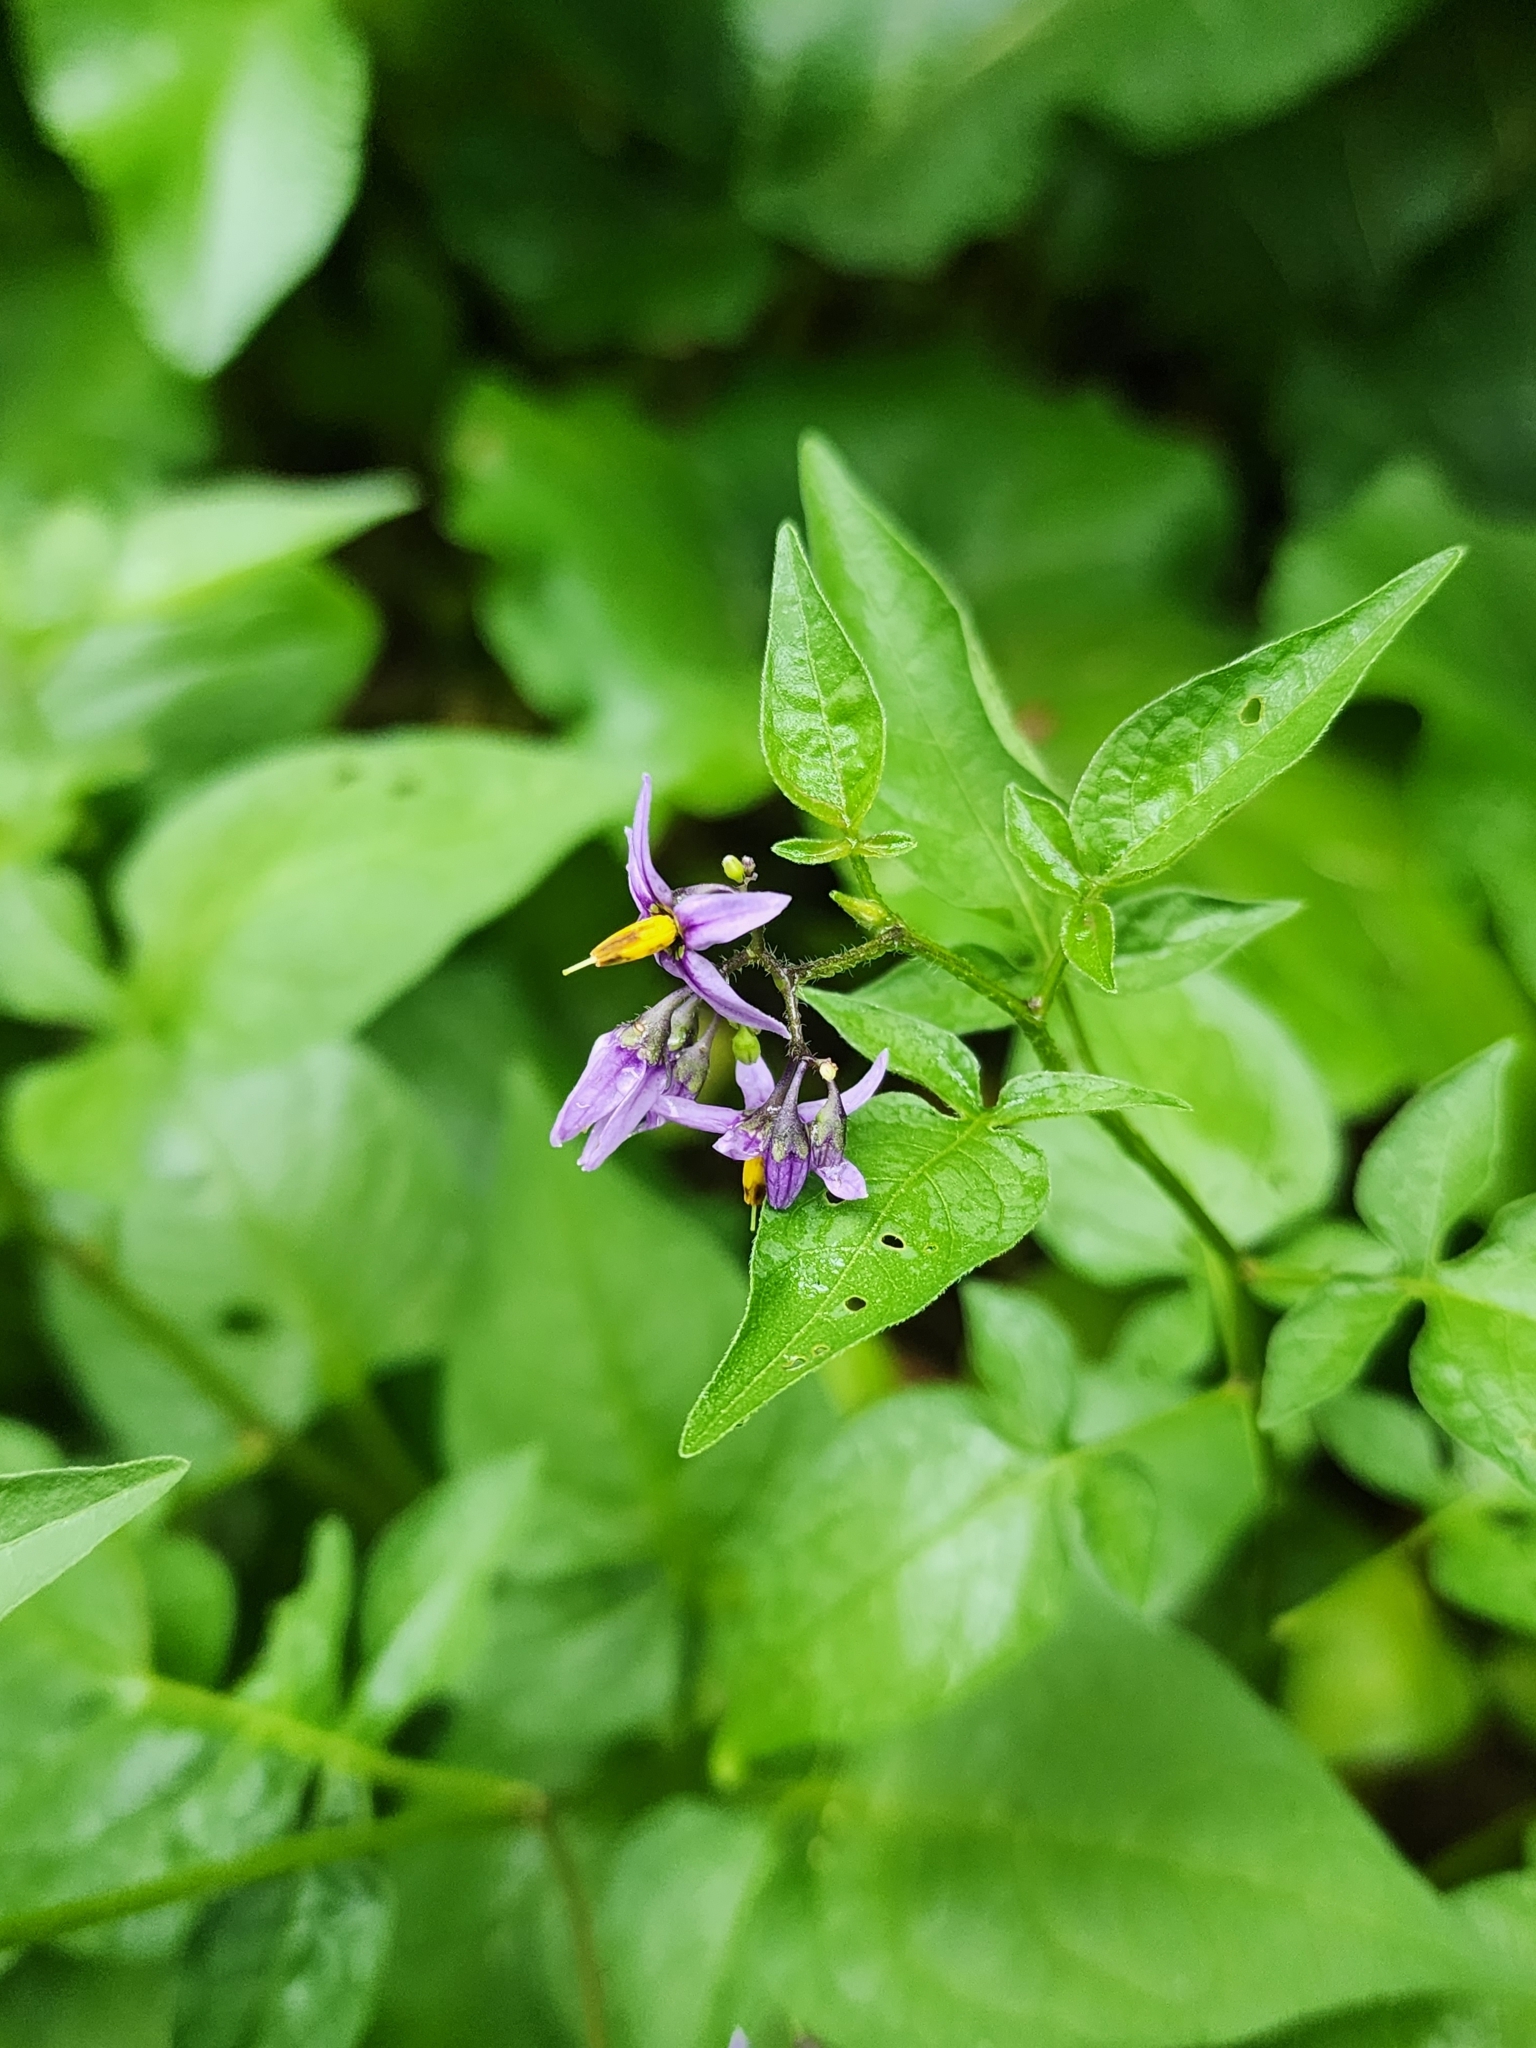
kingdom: Plantae
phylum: Tracheophyta
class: Magnoliopsida
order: Solanales
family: Solanaceae
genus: Solanum
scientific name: Solanum dulcamara
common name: Climbing nightshade
